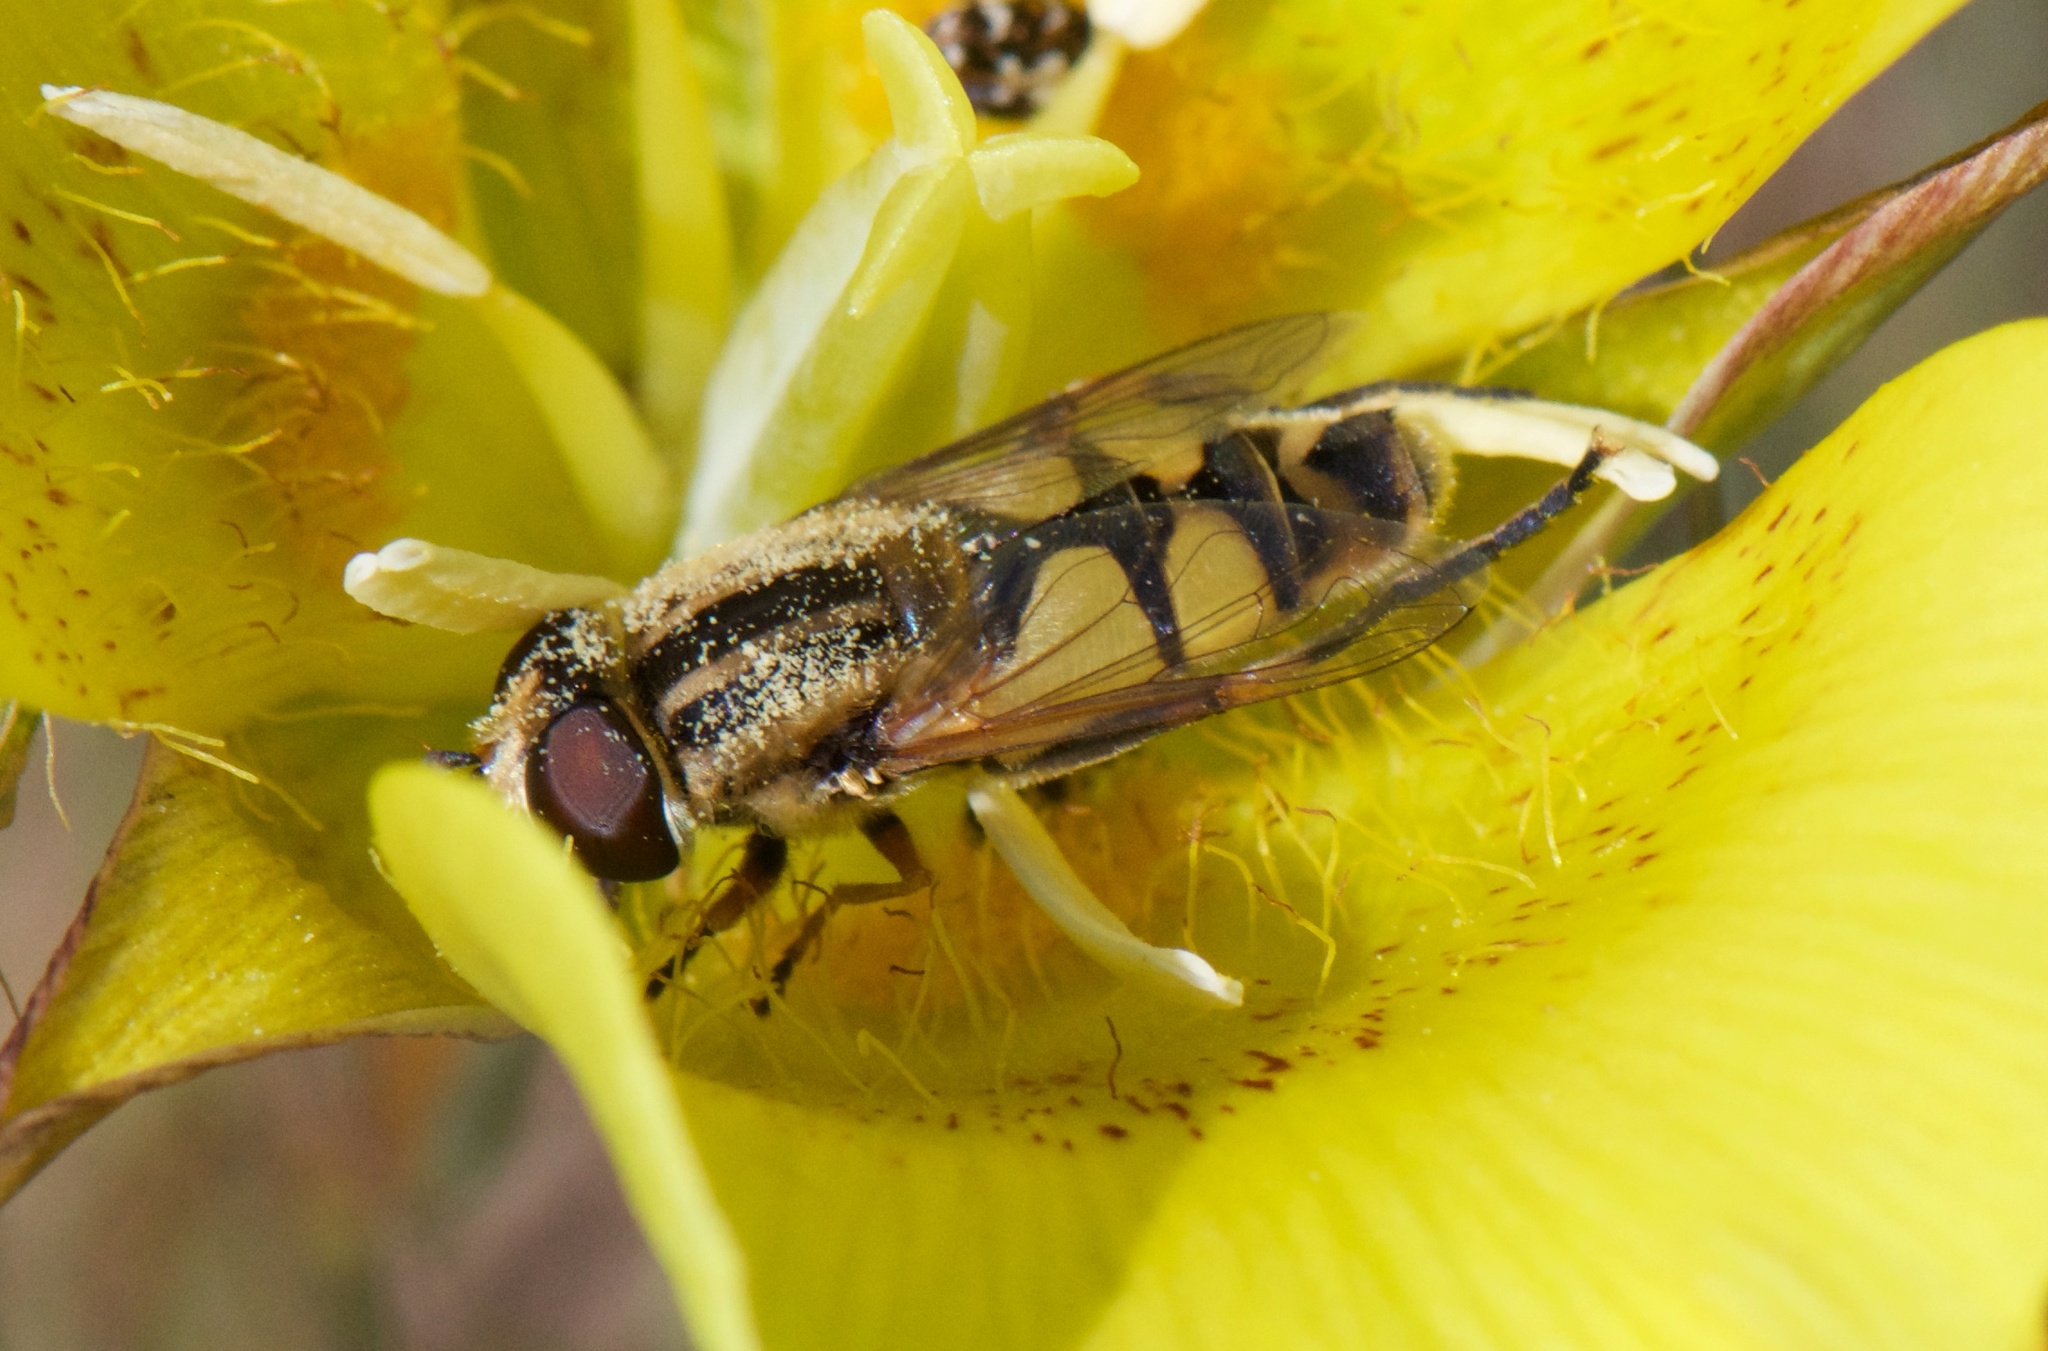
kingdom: Animalia
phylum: Arthropoda
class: Insecta
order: Diptera
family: Syrphidae
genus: Helophilus
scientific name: Helophilus latifrons
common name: Broad-headed marsh fly
